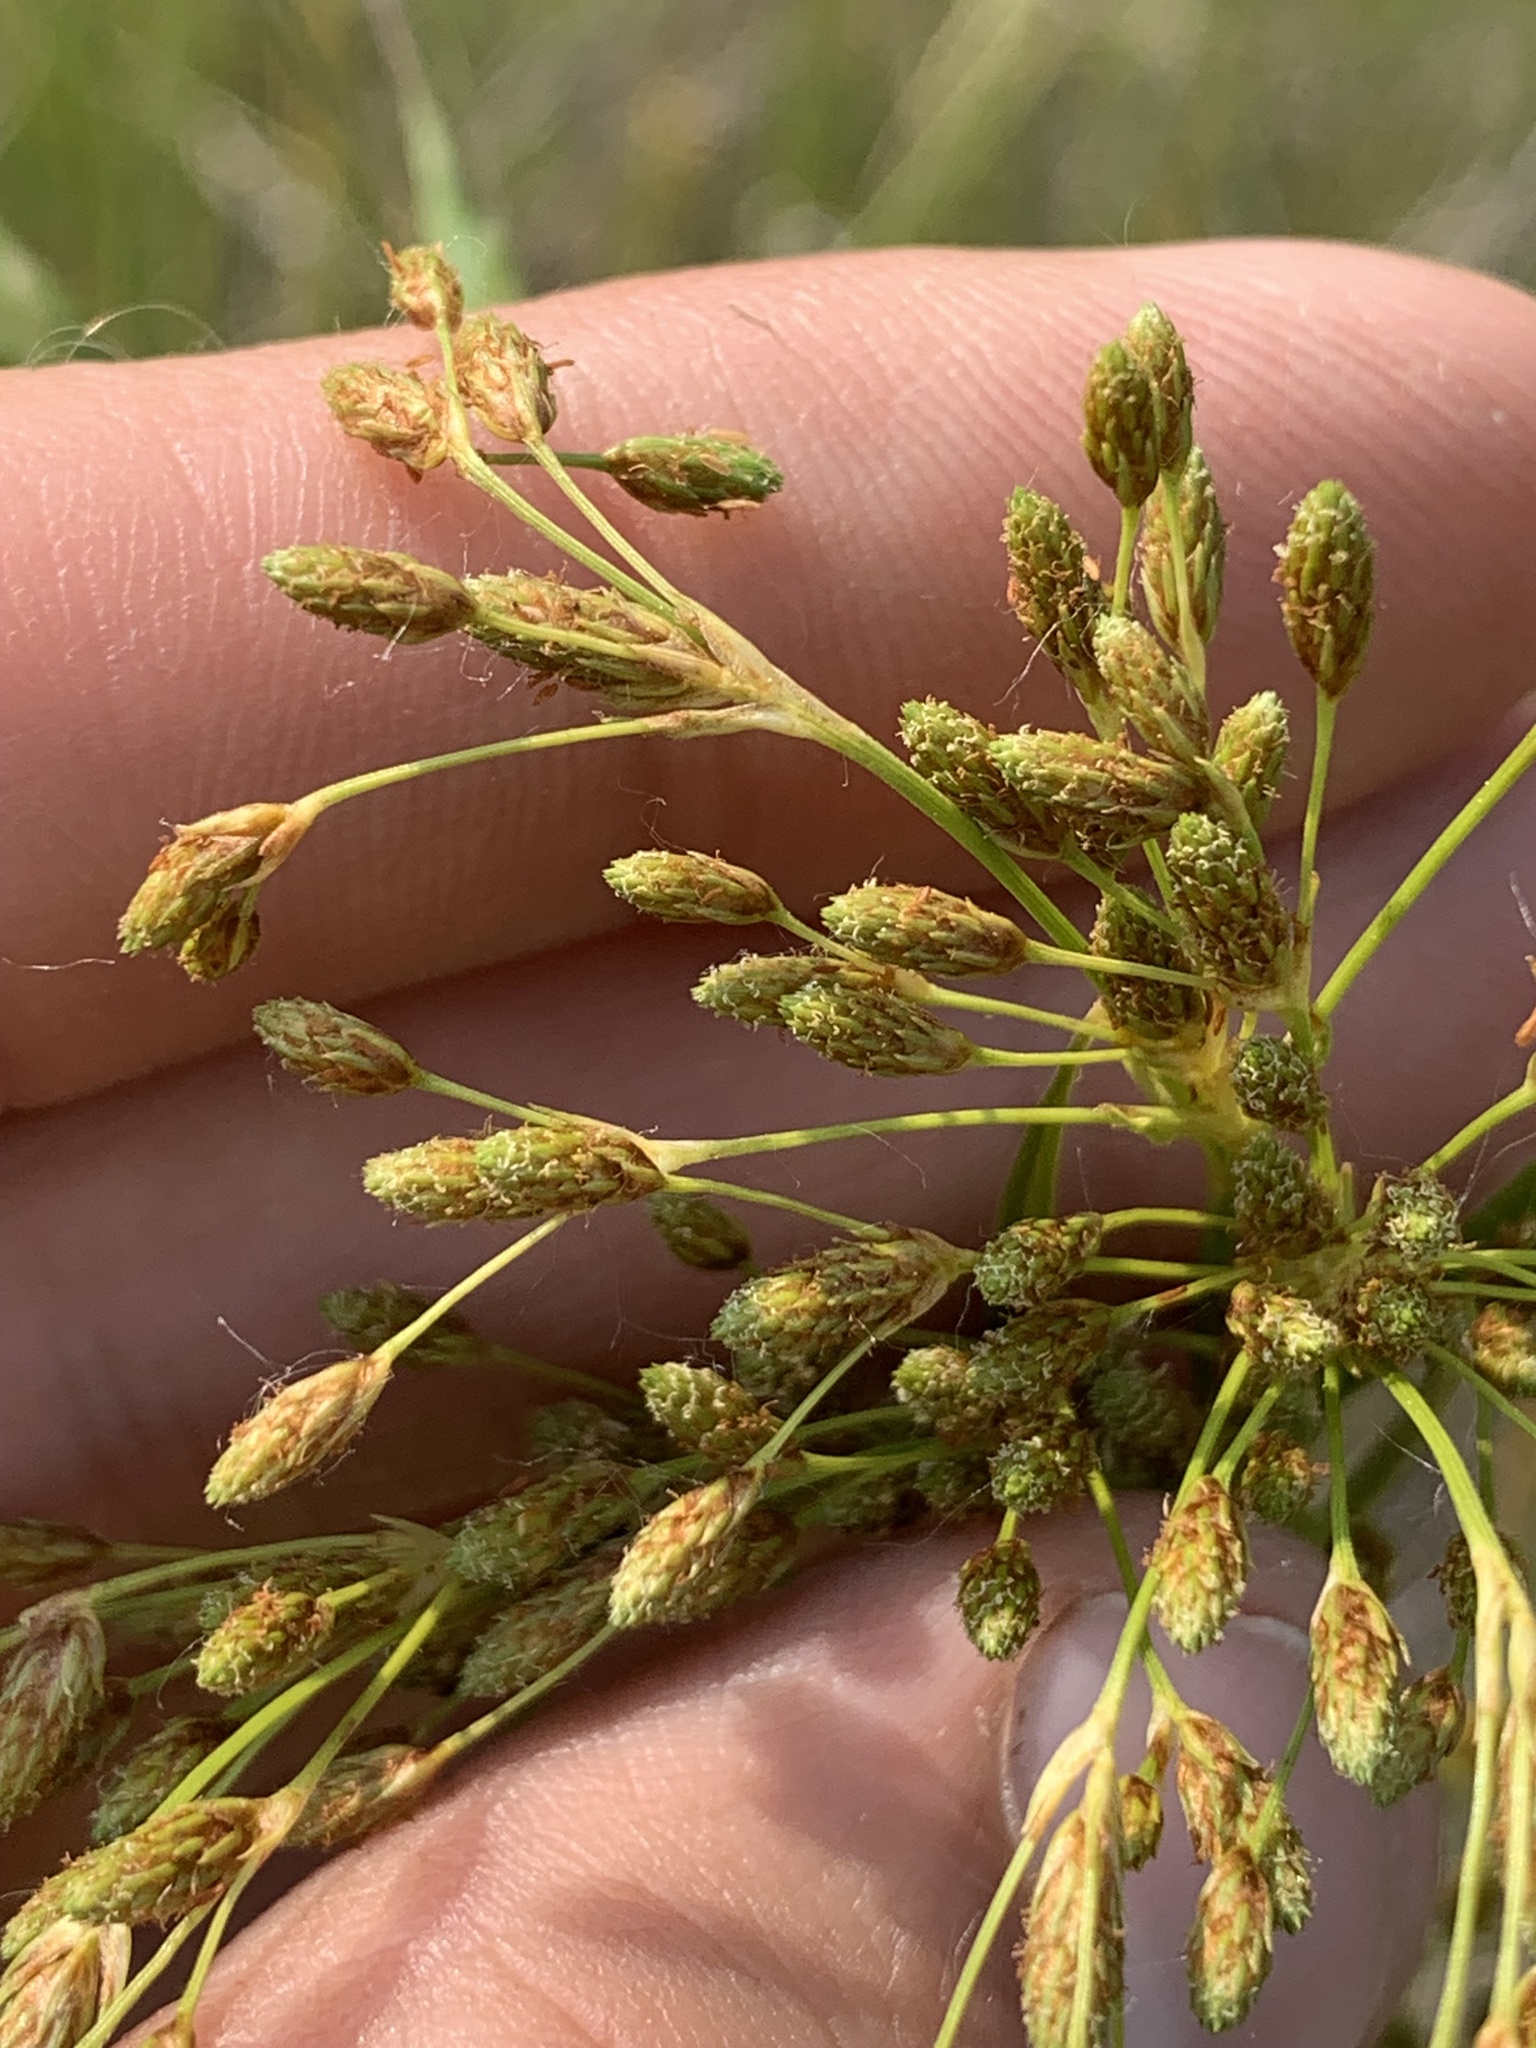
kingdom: Plantae
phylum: Tracheophyta
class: Liliopsida
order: Poales
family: Cyperaceae
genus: Scirpus
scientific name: Scirpus pendulus
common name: Nodding bulrush
